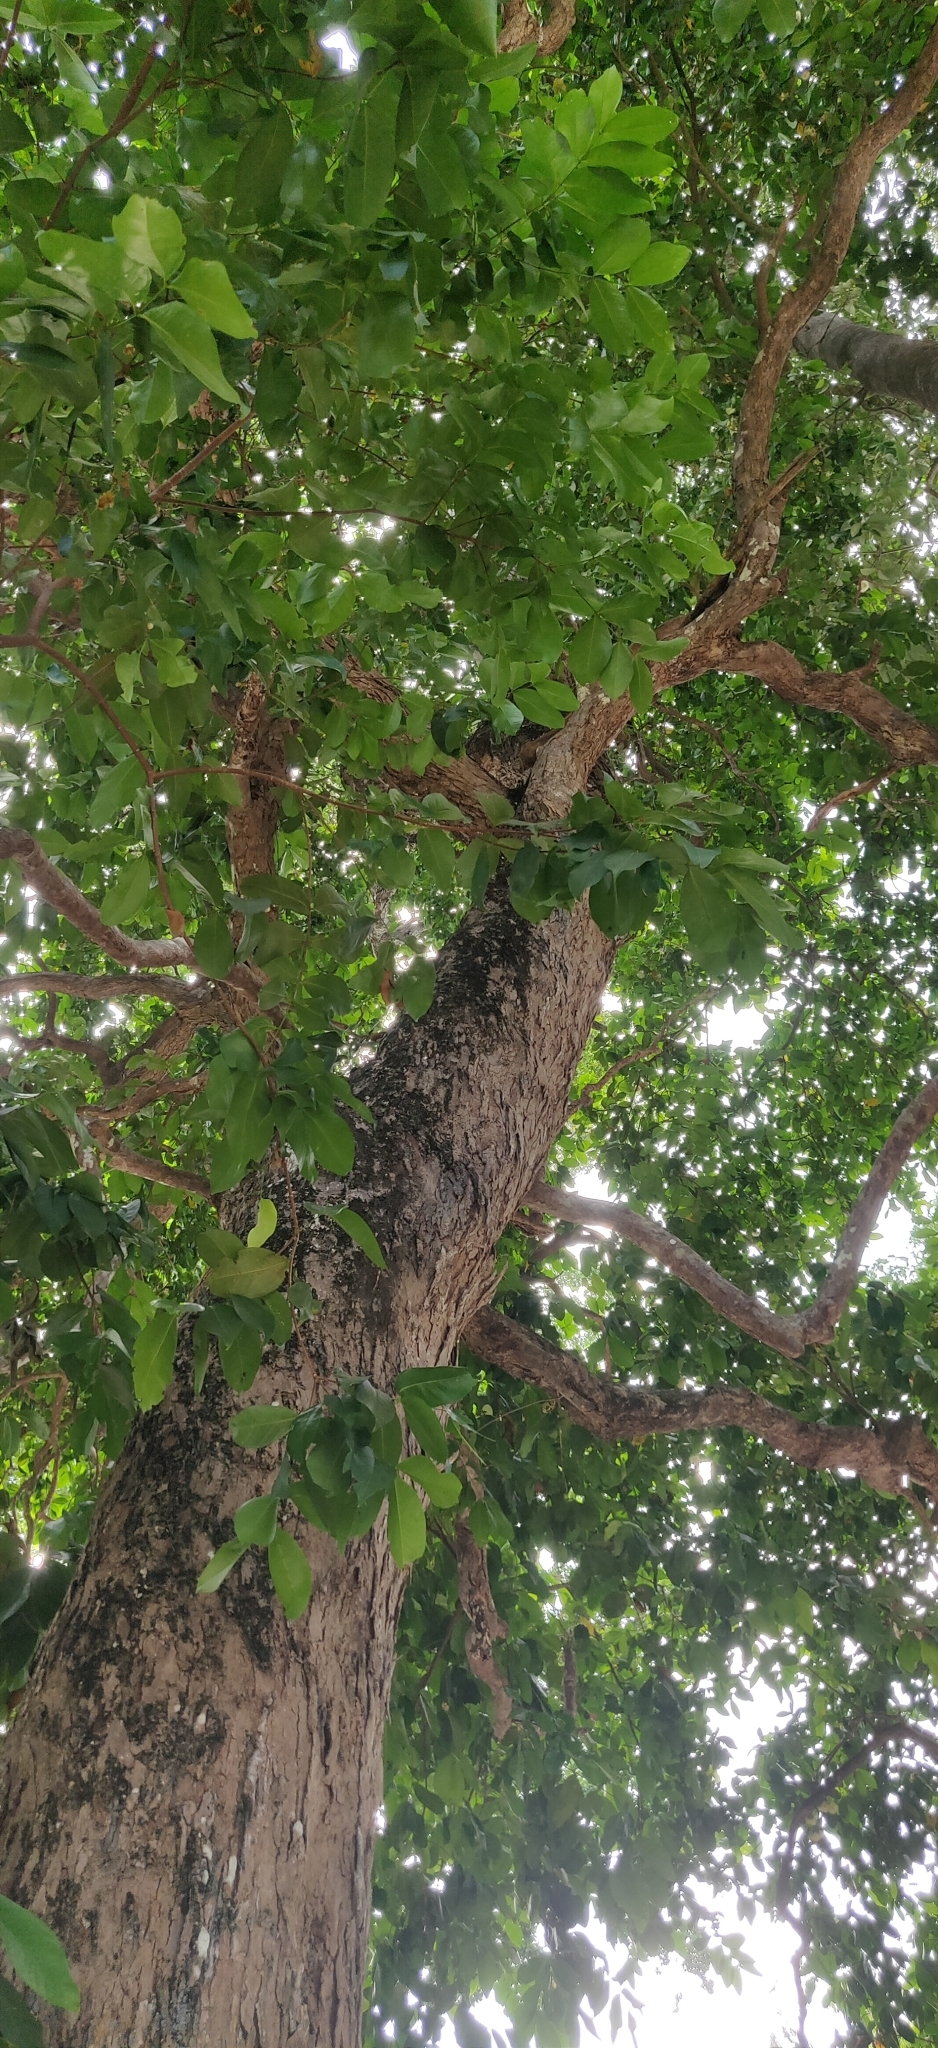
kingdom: Plantae
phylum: Tracheophyta
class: Magnoliopsida
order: Myrtales
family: Myrtaceae
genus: Syzygium
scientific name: Syzygium aqueum
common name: Water-apple
